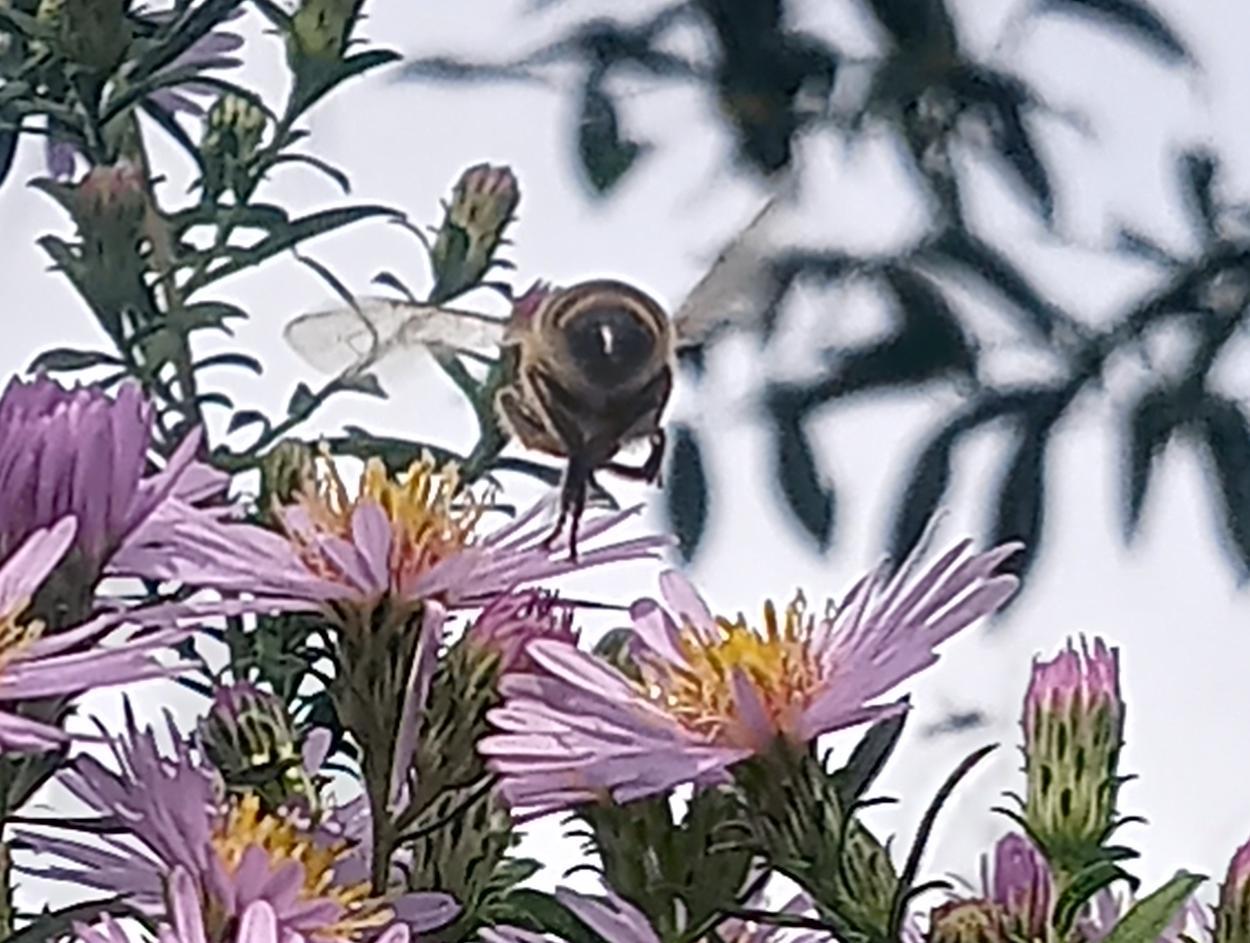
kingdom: Animalia
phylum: Arthropoda
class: Insecta
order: Hymenoptera
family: Apidae
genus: Apis
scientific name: Apis mellifera
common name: Honey bee
